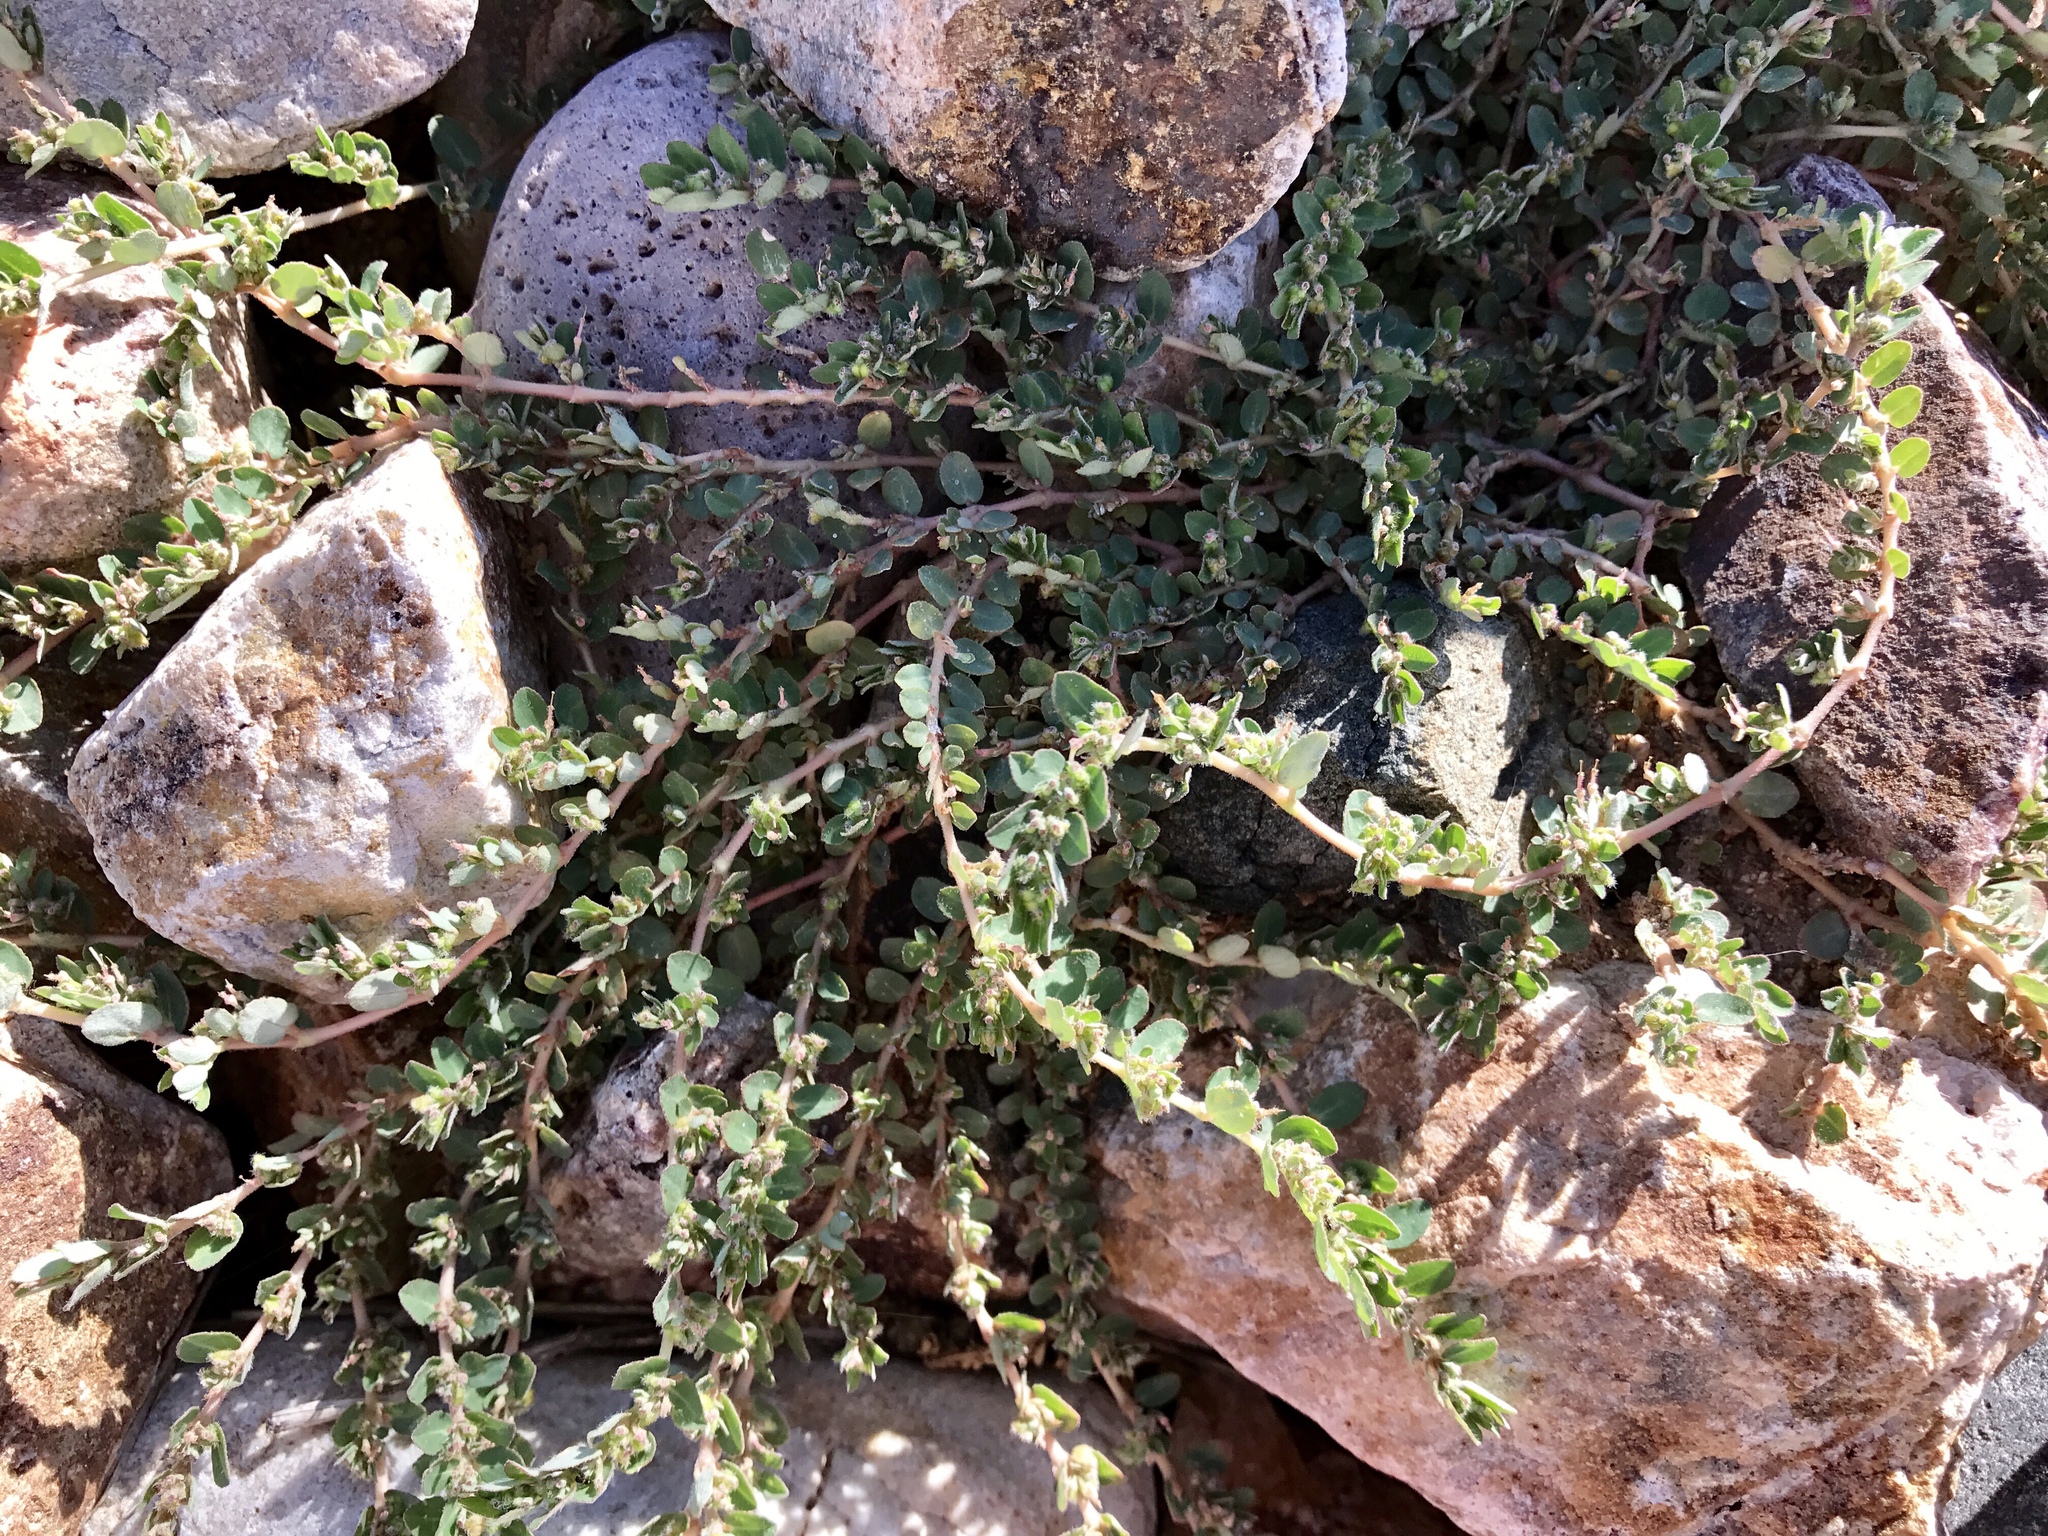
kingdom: Plantae
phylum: Tracheophyta
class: Magnoliopsida
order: Malpighiales
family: Euphorbiaceae
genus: Euphorbia
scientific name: Euphorbia prostrata
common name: Prostrate sandmat
